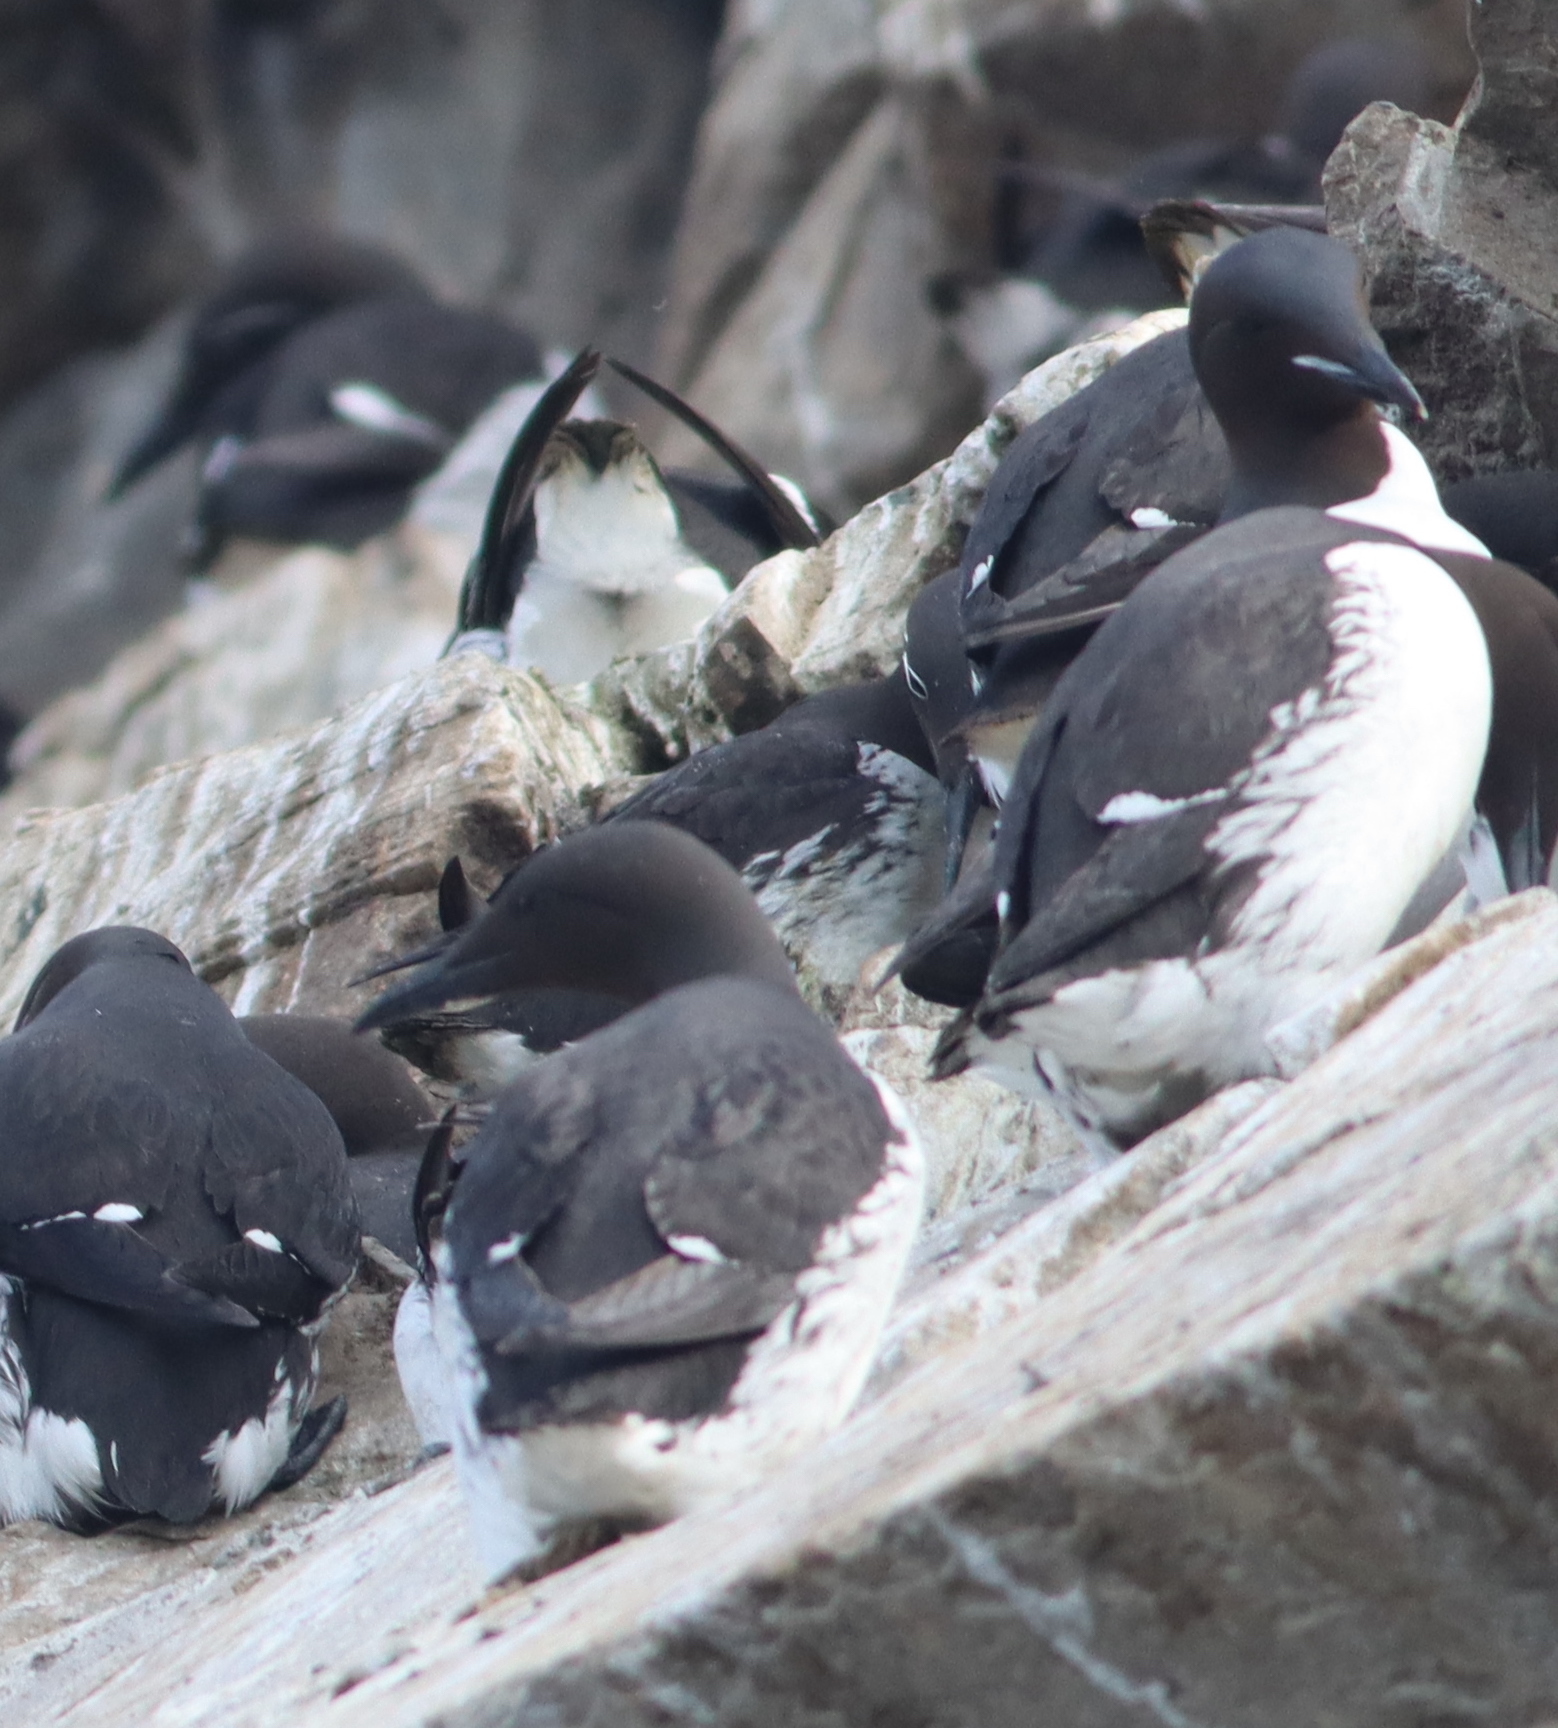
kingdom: Animalia
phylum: Chordata
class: Aves
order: Charadriiformes
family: Alcidae
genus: Uria
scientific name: Uria lomvia
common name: Thick-billed murre
